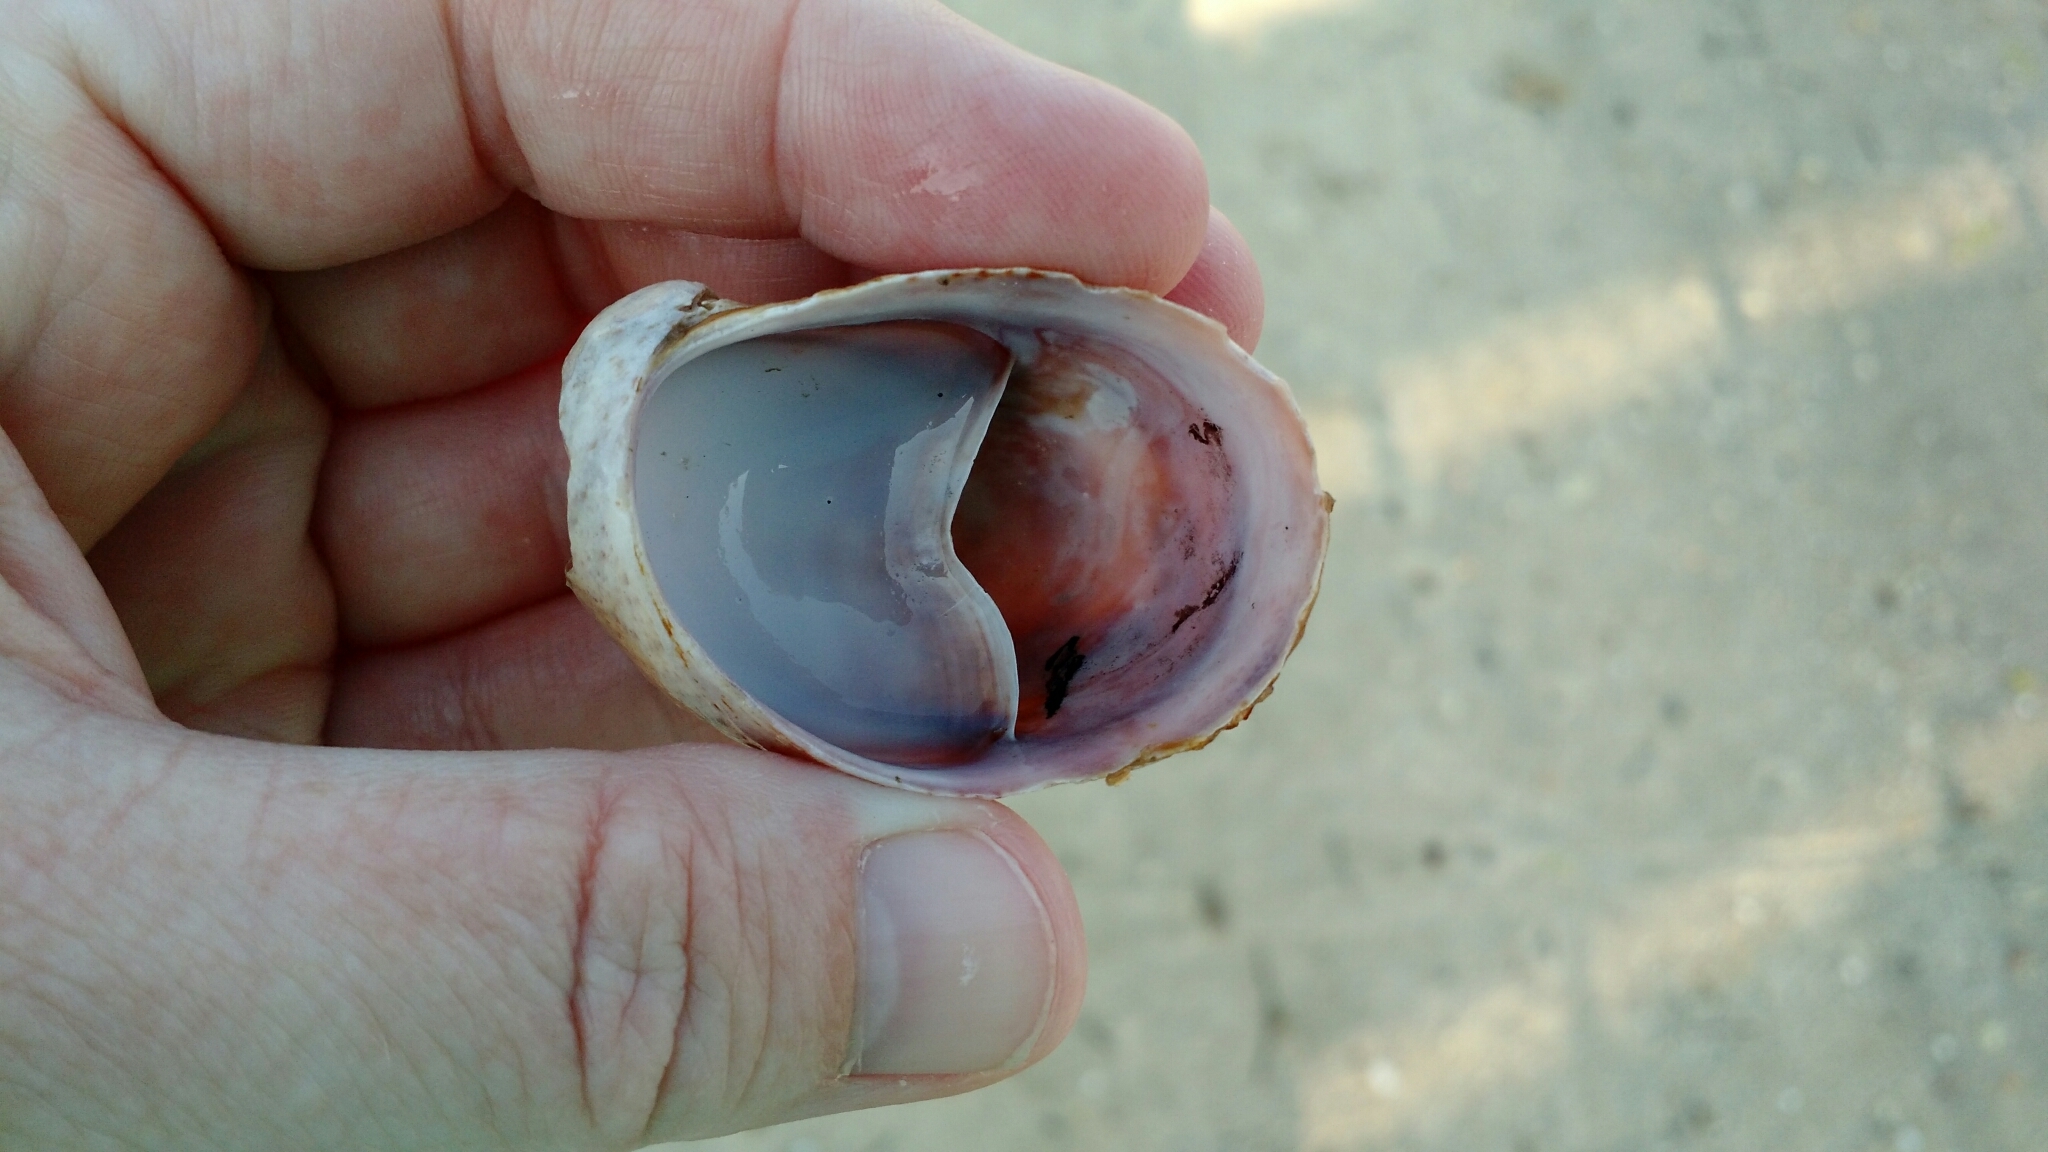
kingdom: Animalia
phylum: Mollusca
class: Gastropoda
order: Littorinimorpha
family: Calyptraeidae
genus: Crepidula
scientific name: Crepidula fornicata
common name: Slipper limpet
